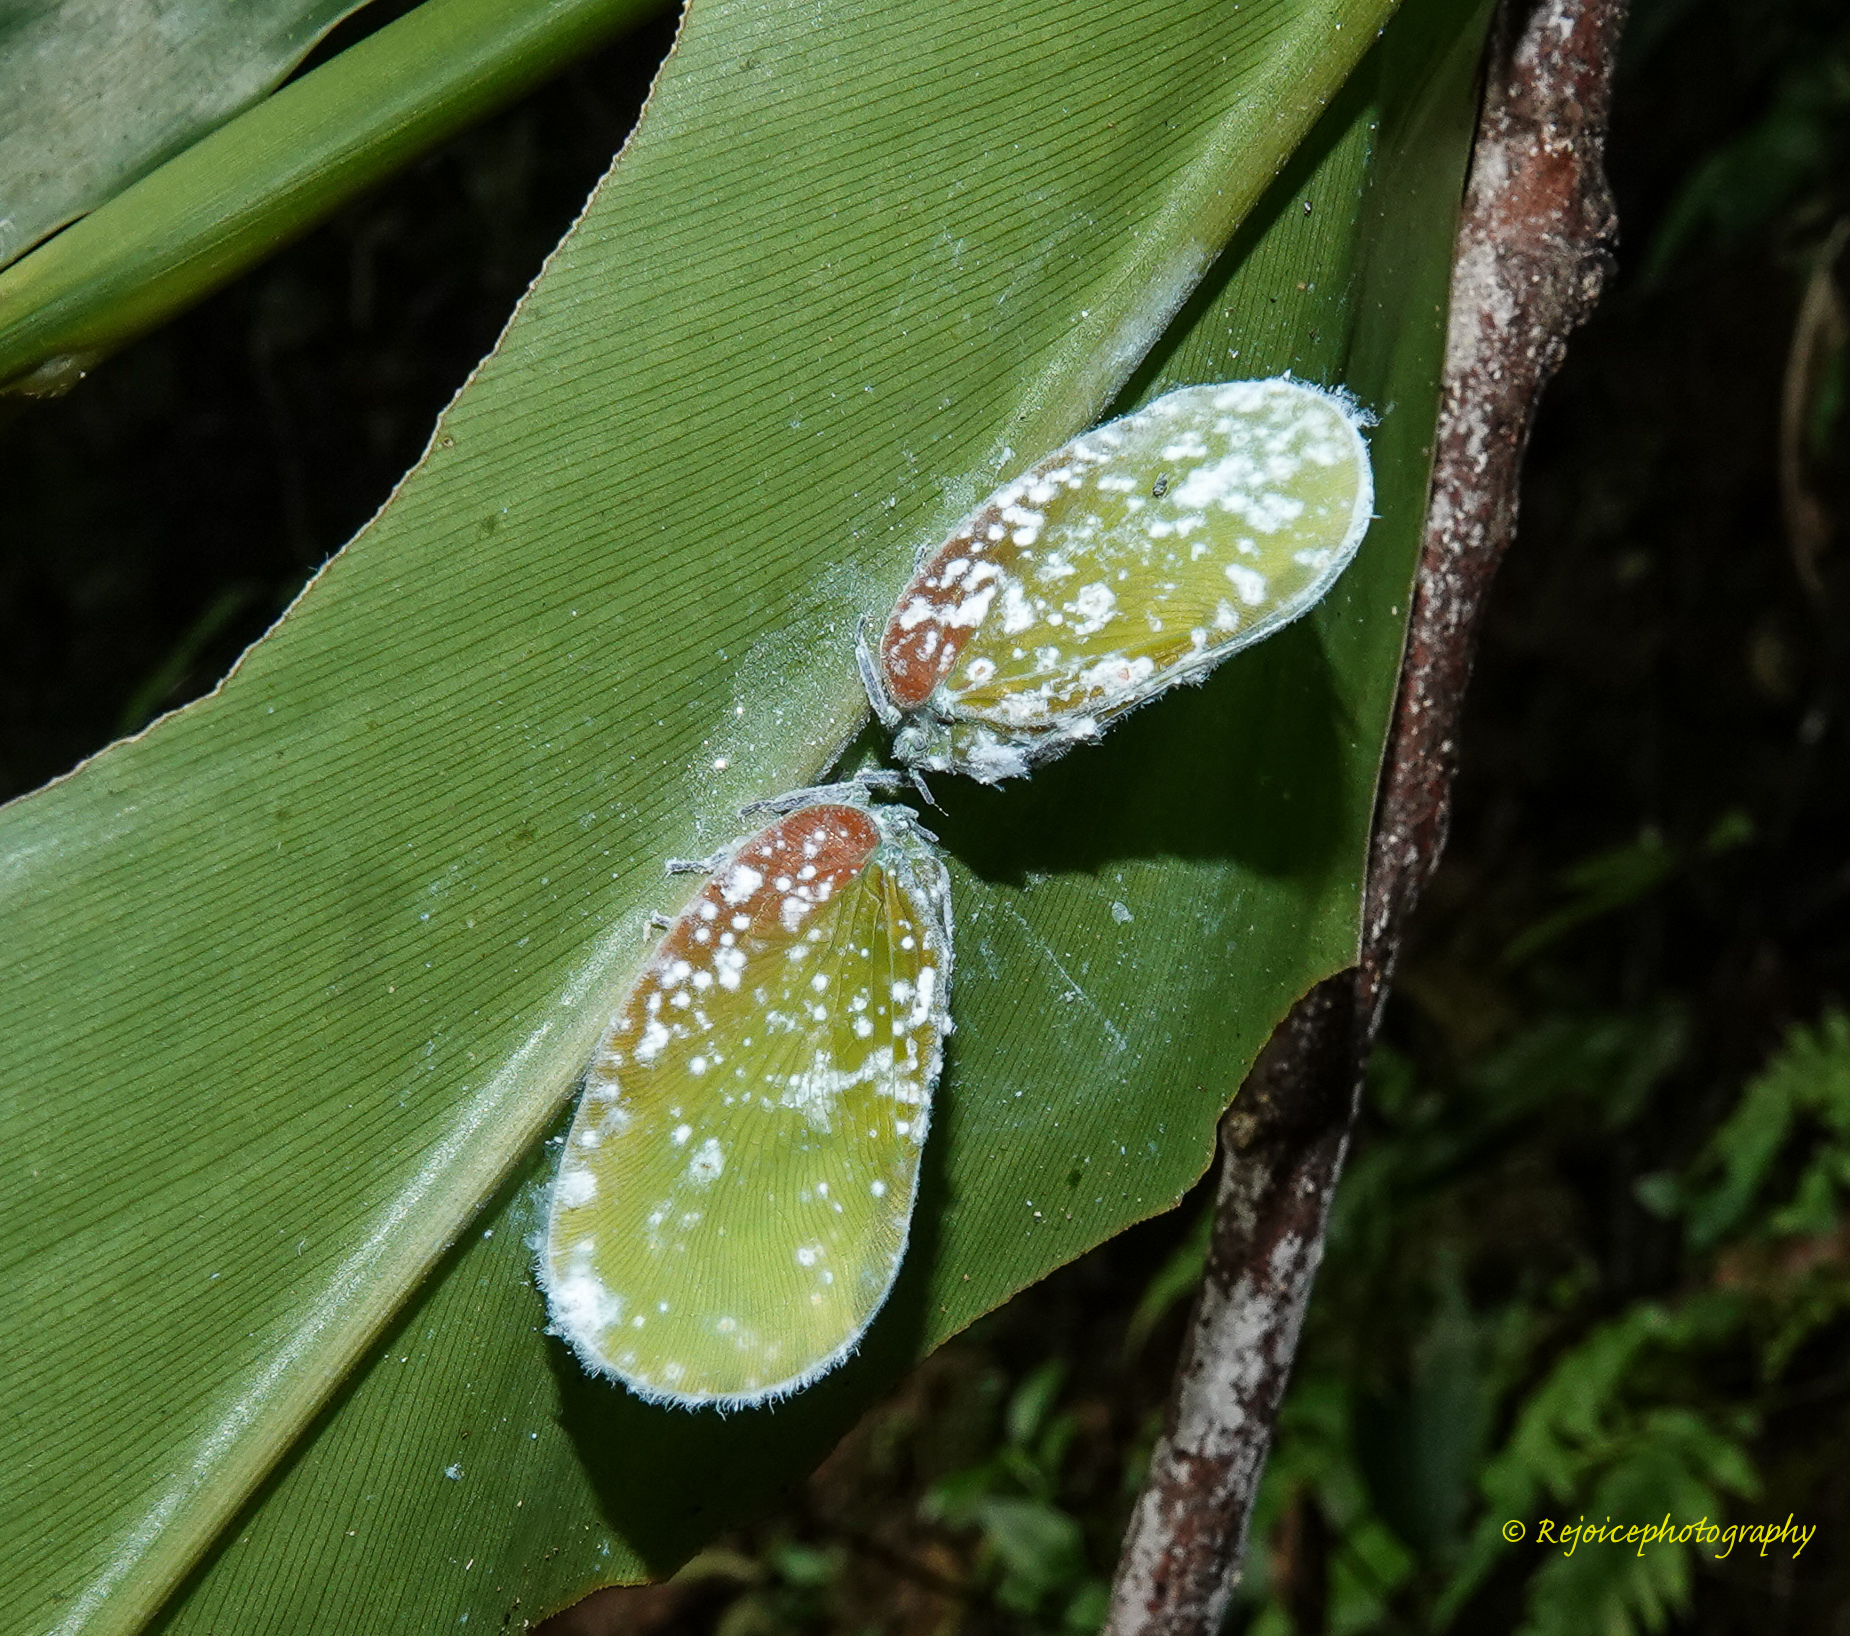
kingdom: Animalia
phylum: Arthropoda
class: Insecta
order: Hemiptera
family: Flatidae
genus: Flatida
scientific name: Flatida tricolor
